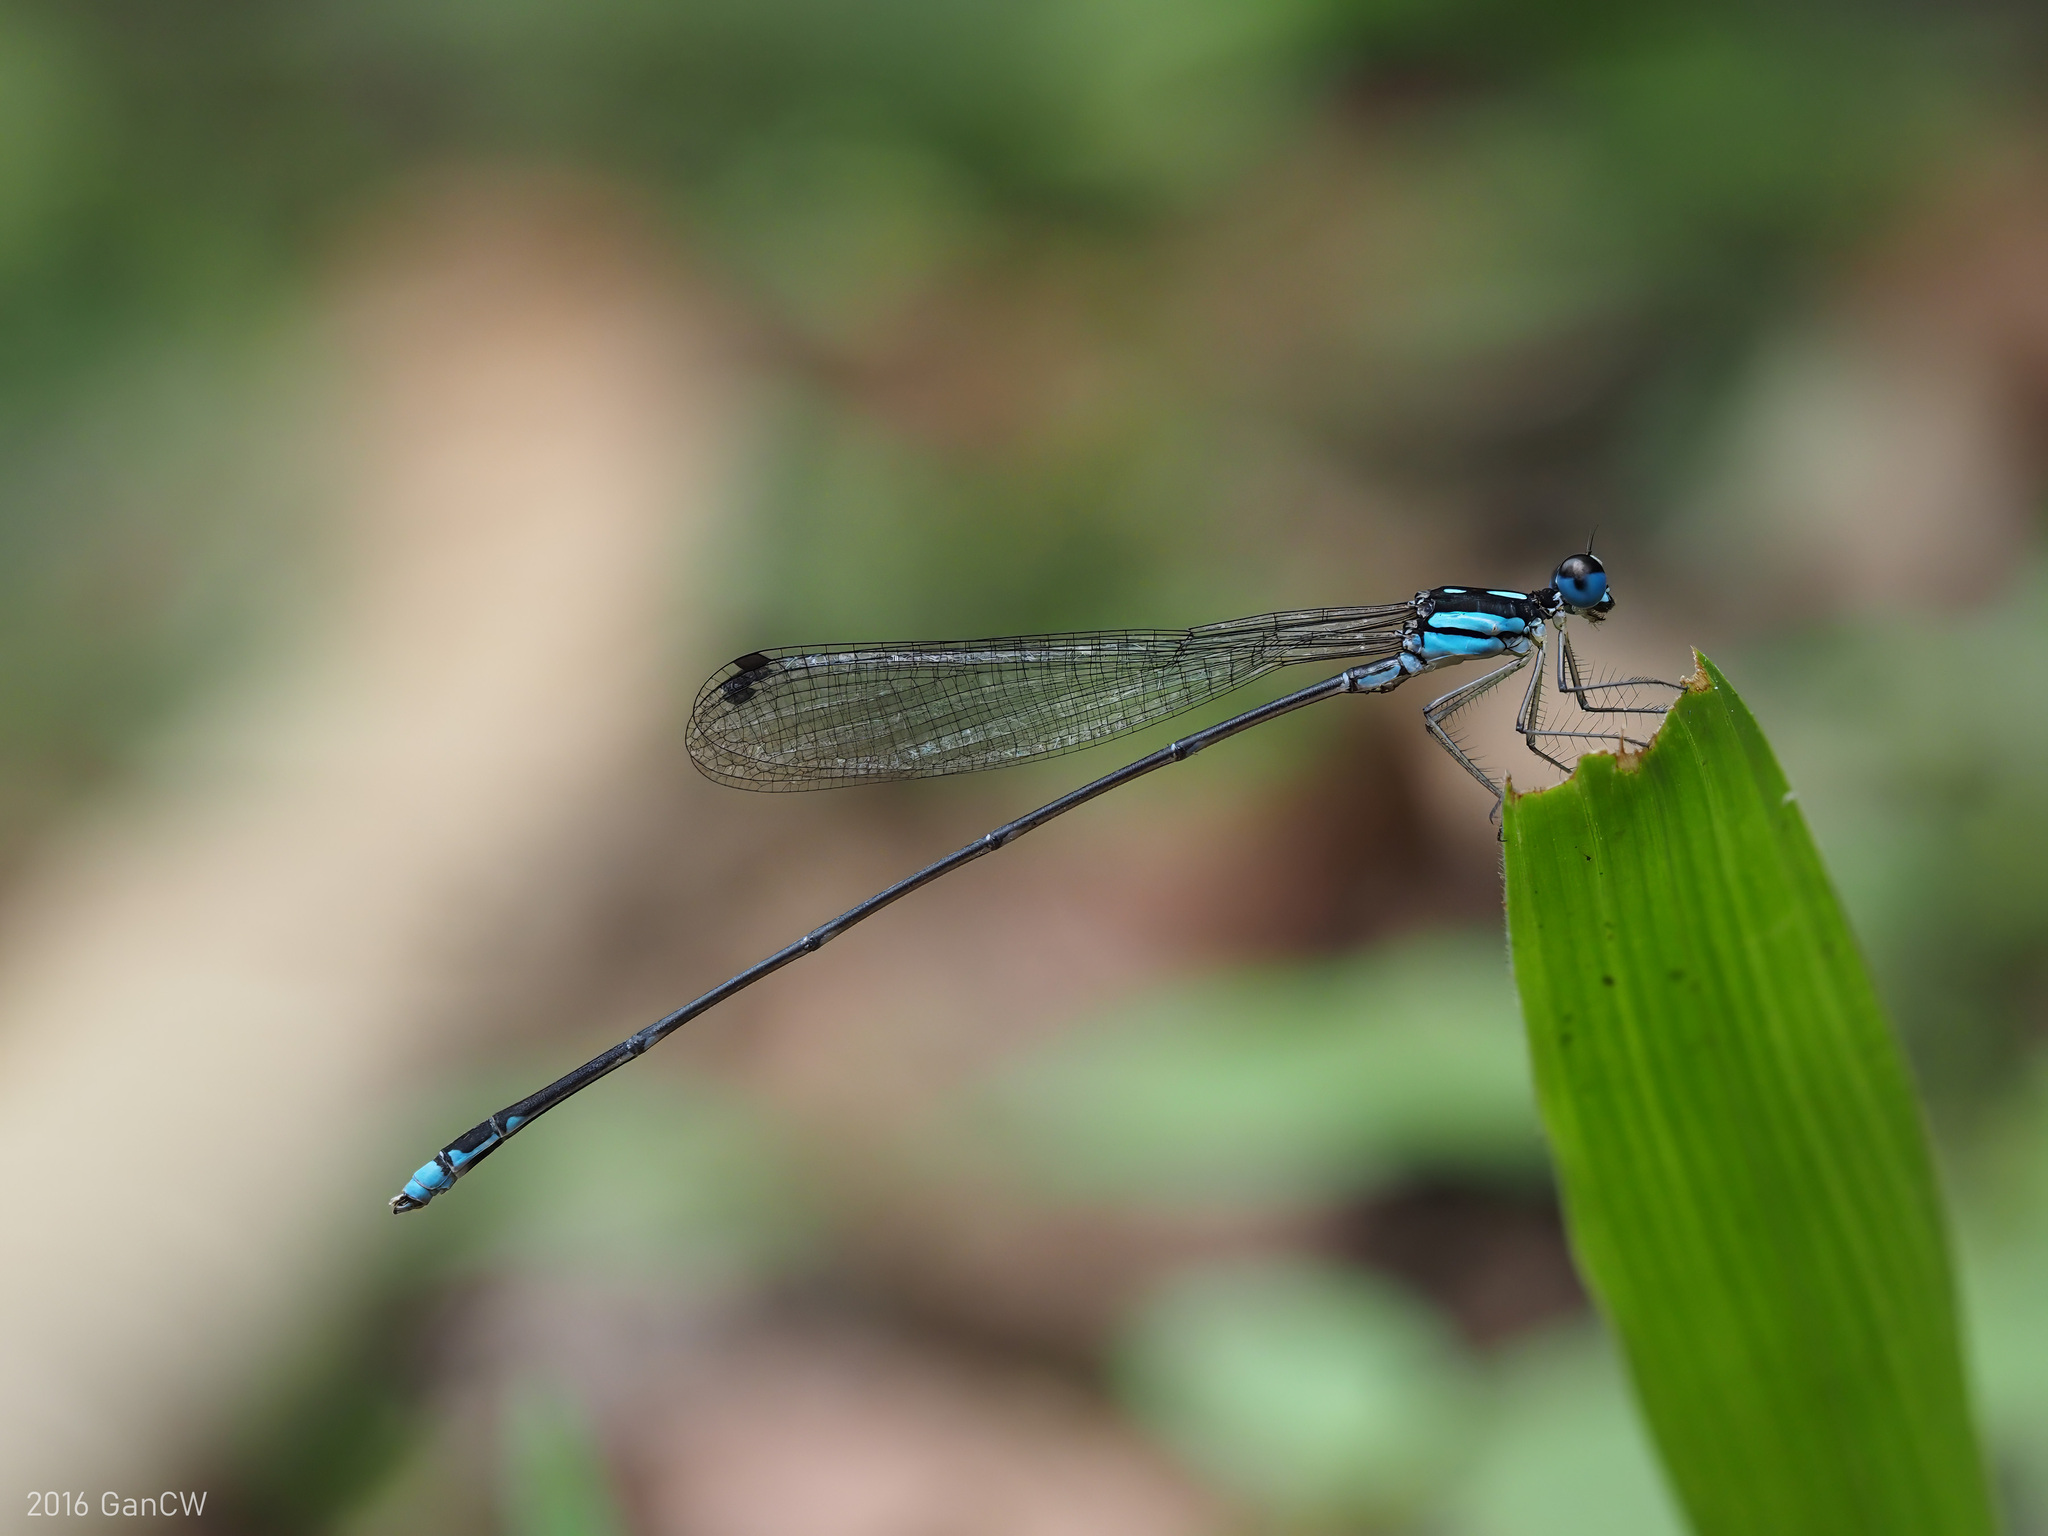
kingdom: Animalia
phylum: Arthropoda
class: Insecta
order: Odonata
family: Platycnemididae
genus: Coeliccia
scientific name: Coeliccia didyma
